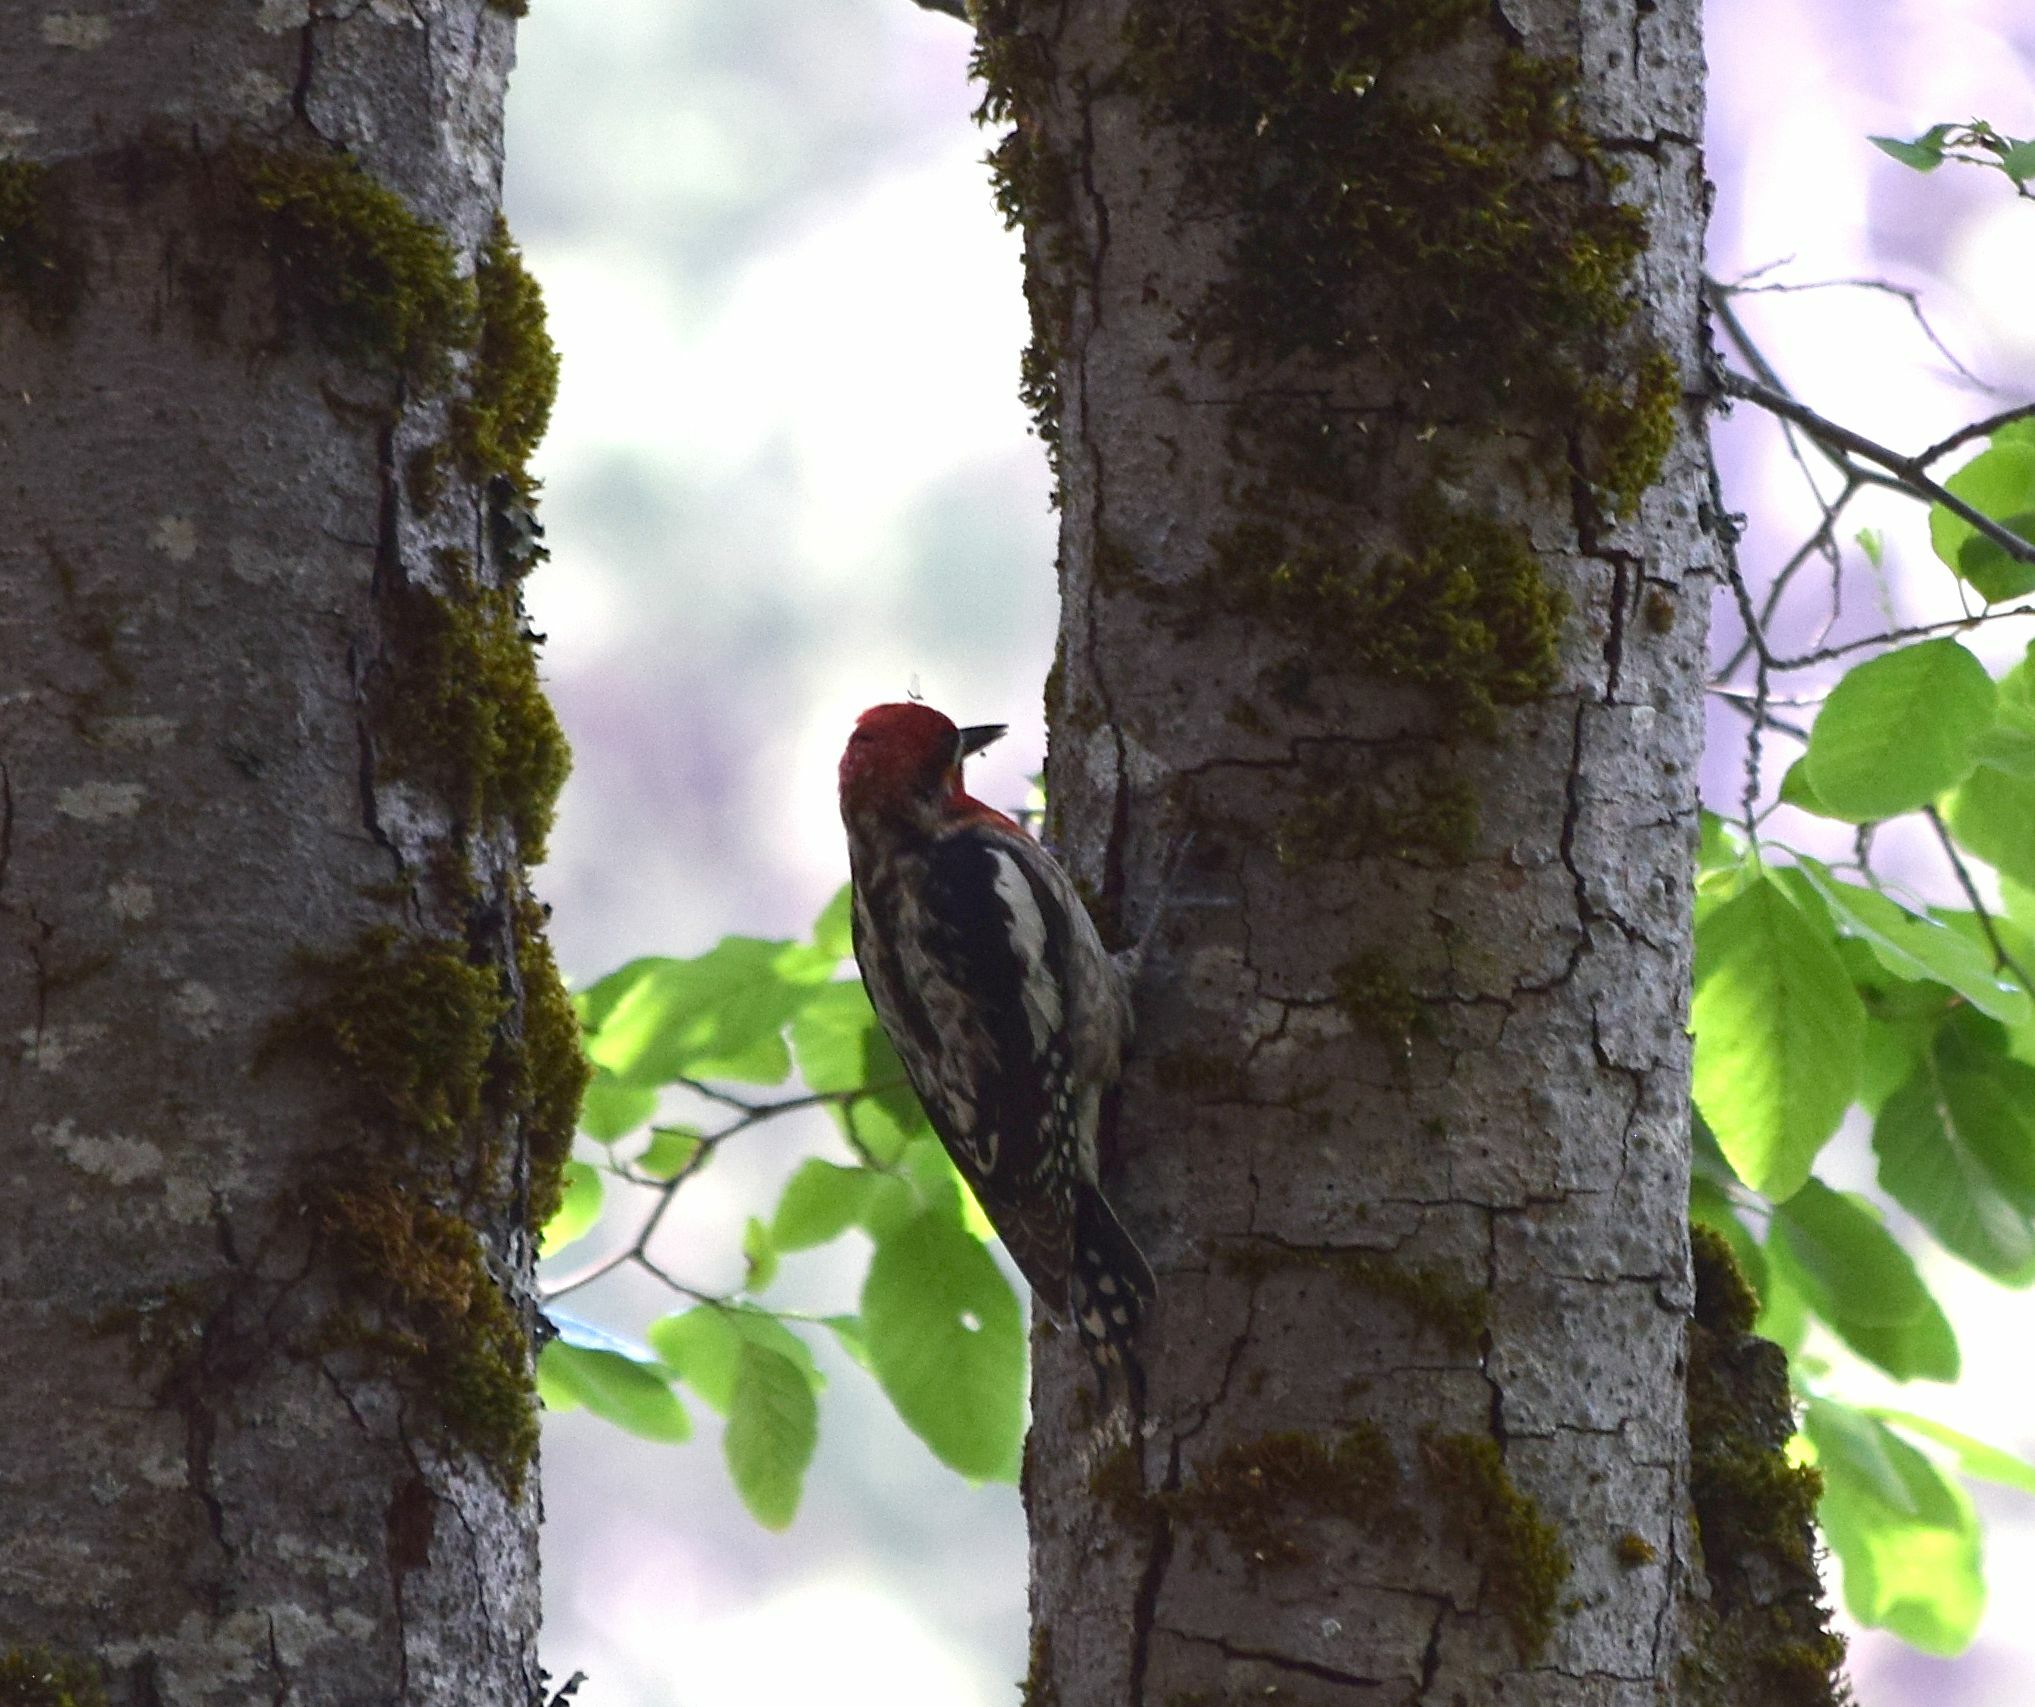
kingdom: Animalia
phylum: Chordata
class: Aves
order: Piciformes
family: Picidae
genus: Sphyrapicus
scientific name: Sphyrapicus ruber
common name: Red-breasted sapsucker
